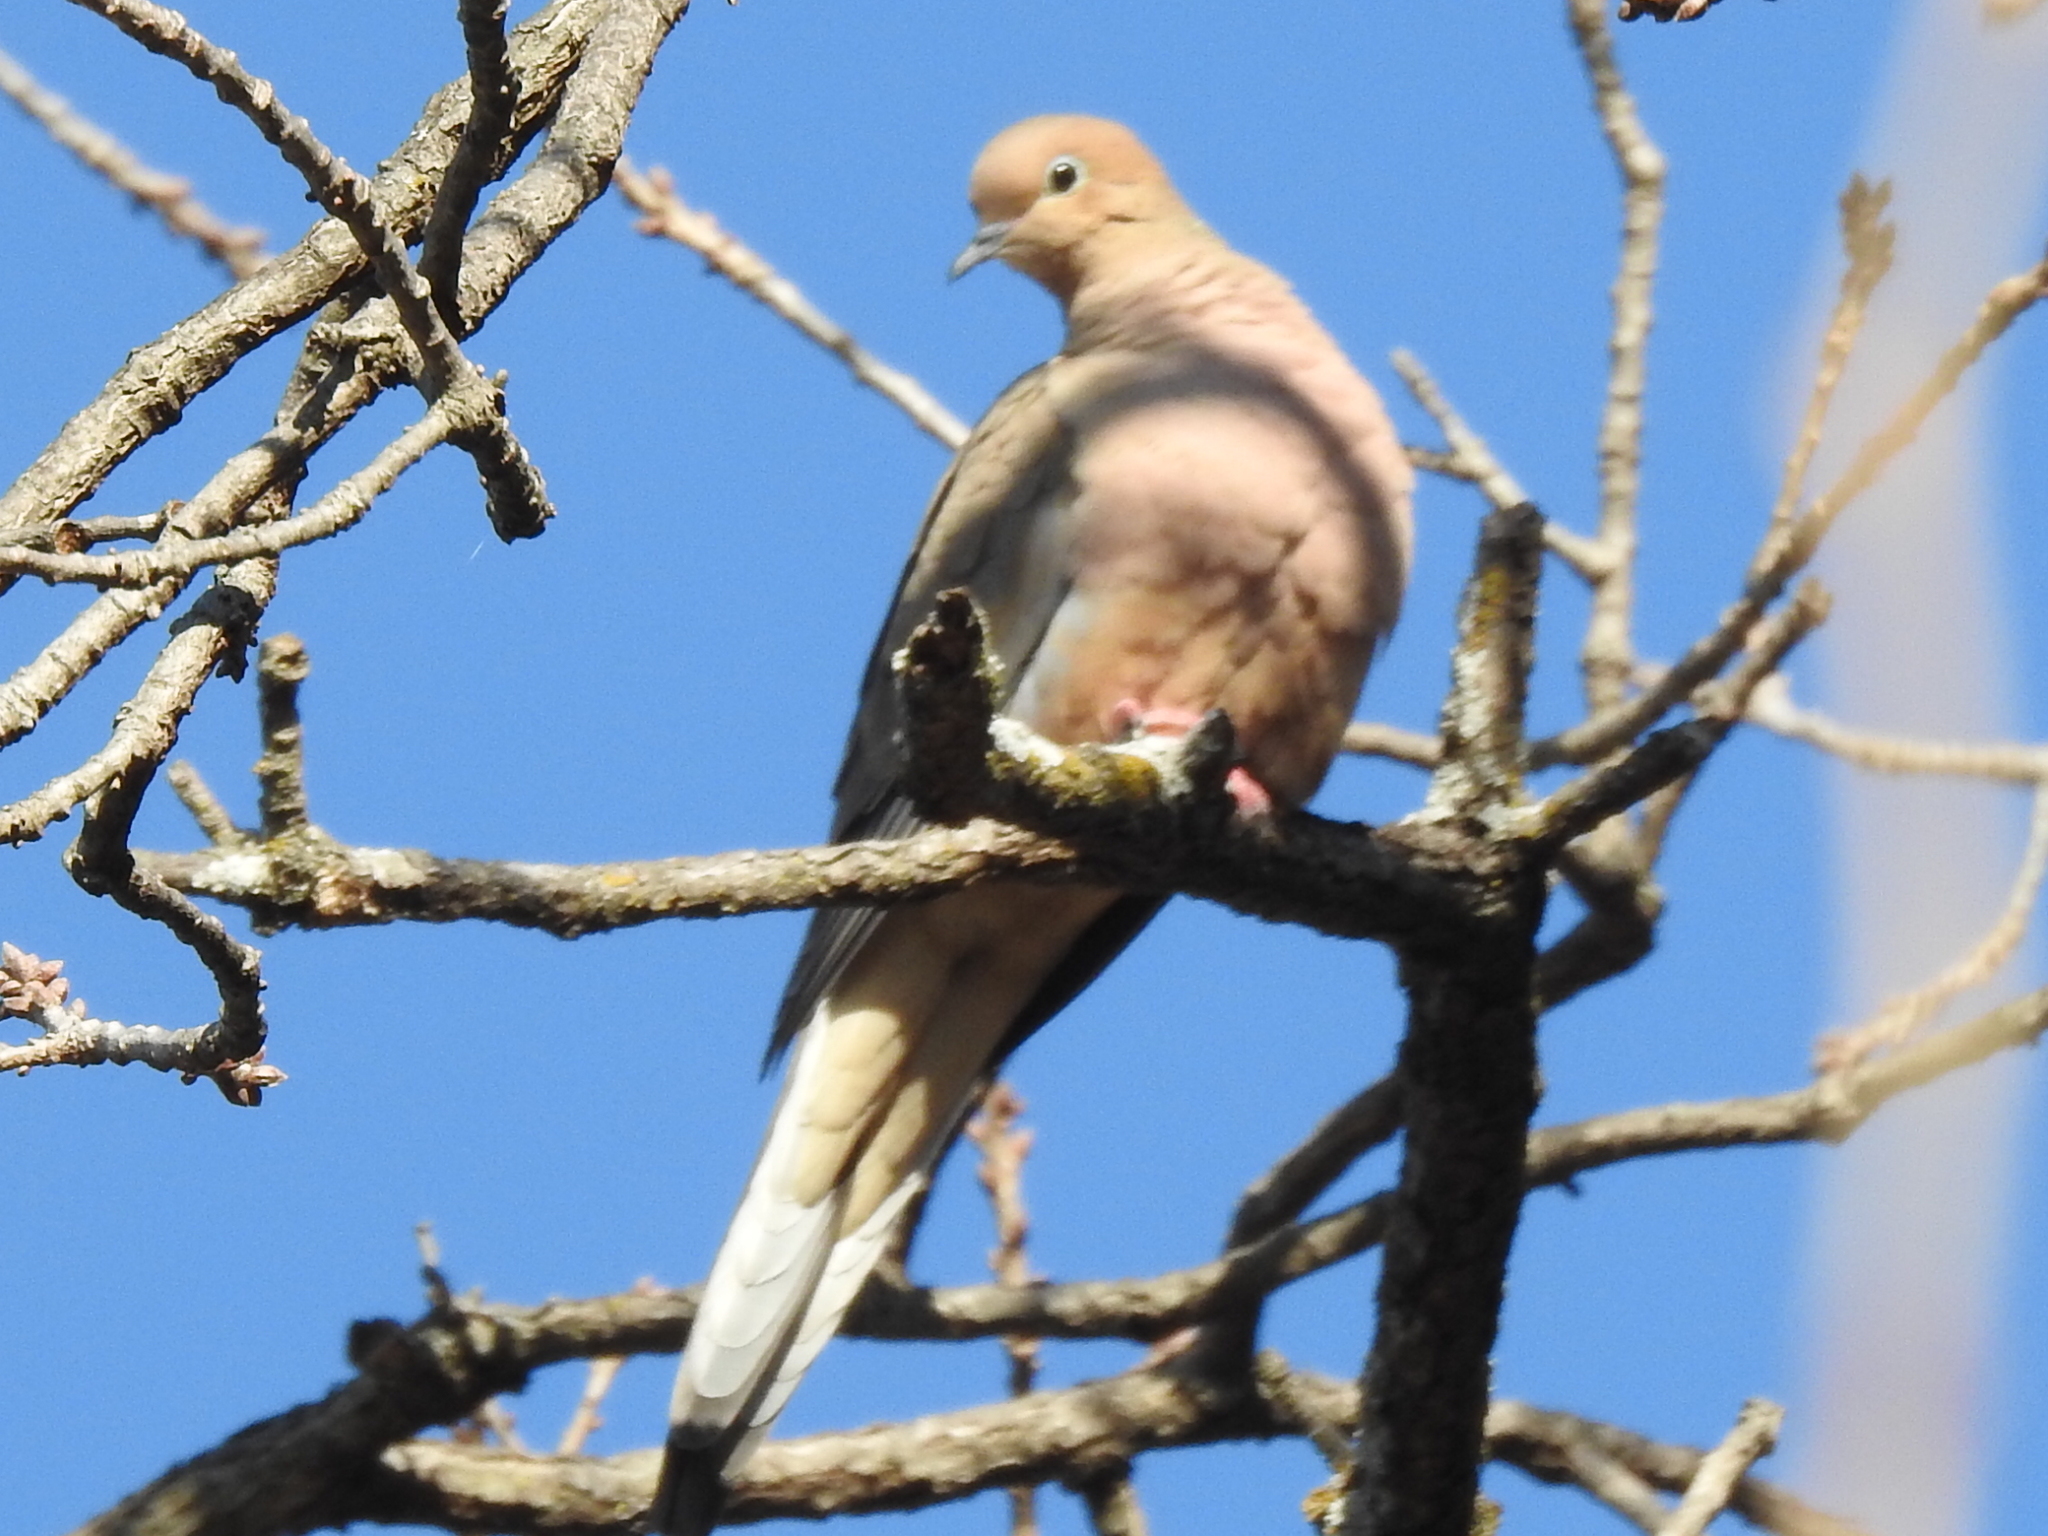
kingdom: Animalia
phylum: Chordata
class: Aves
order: Columbiformes
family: Columbidae
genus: Zenaida
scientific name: Zenaida macroura
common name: Mourning dove
